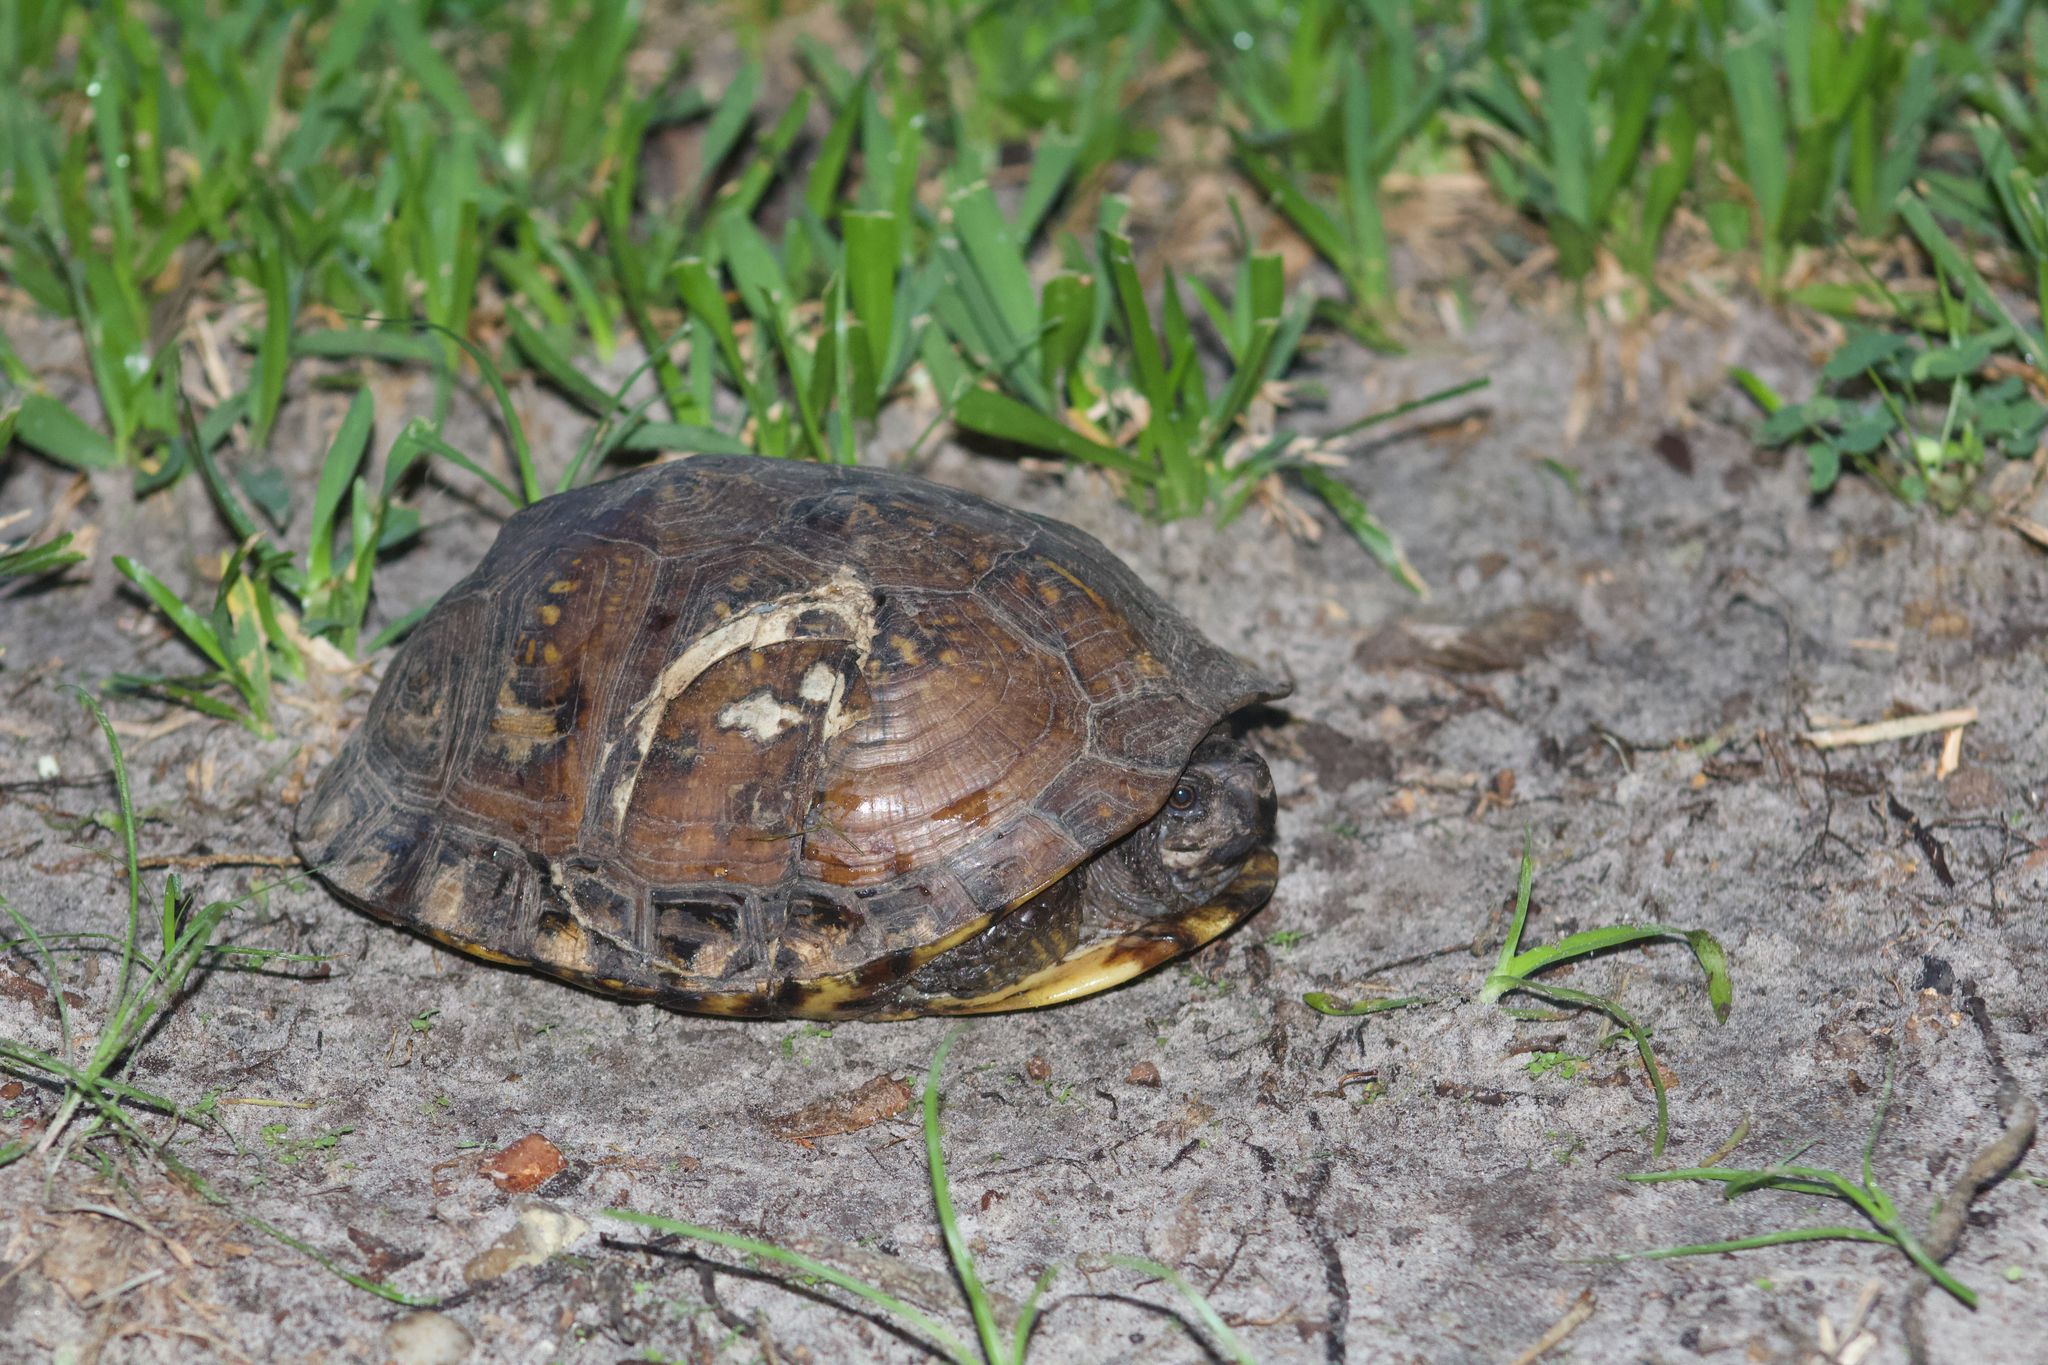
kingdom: Animalia
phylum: Chordata
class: Testudines
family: Emydidae
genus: Terrapene
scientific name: Terrapene carolina
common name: Common box turtle
